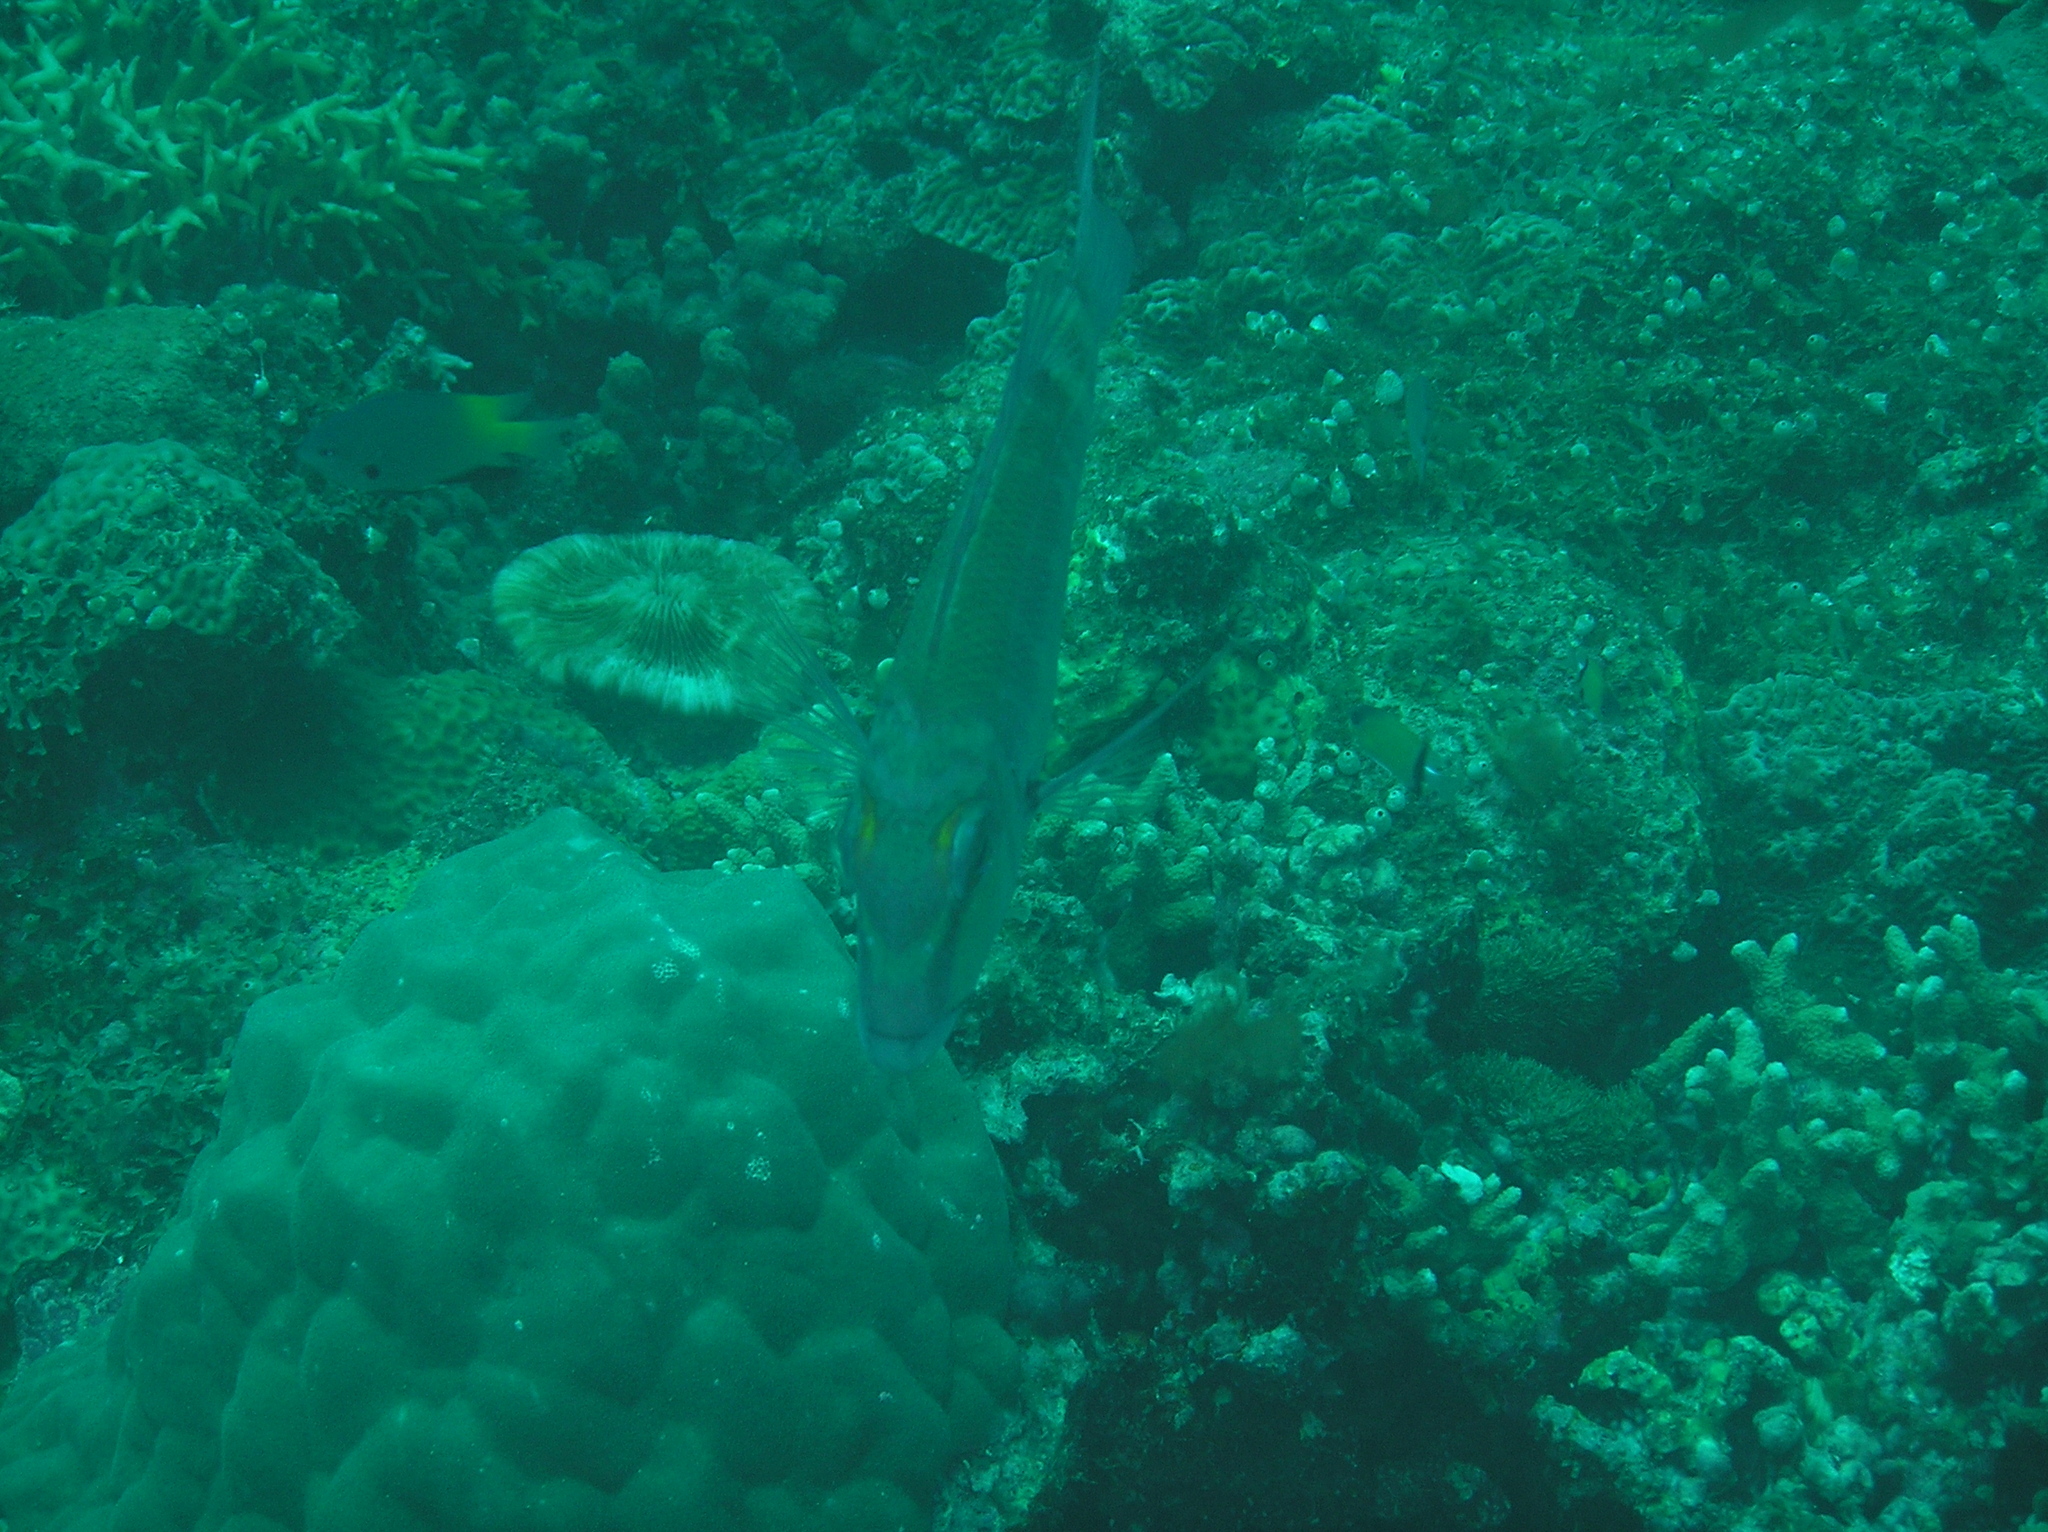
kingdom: Animalia
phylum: Chordata
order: Perciformes
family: Lethrinidae
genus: Lethrinus
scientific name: Lethrinus erythropterus
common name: Longfin emperor
